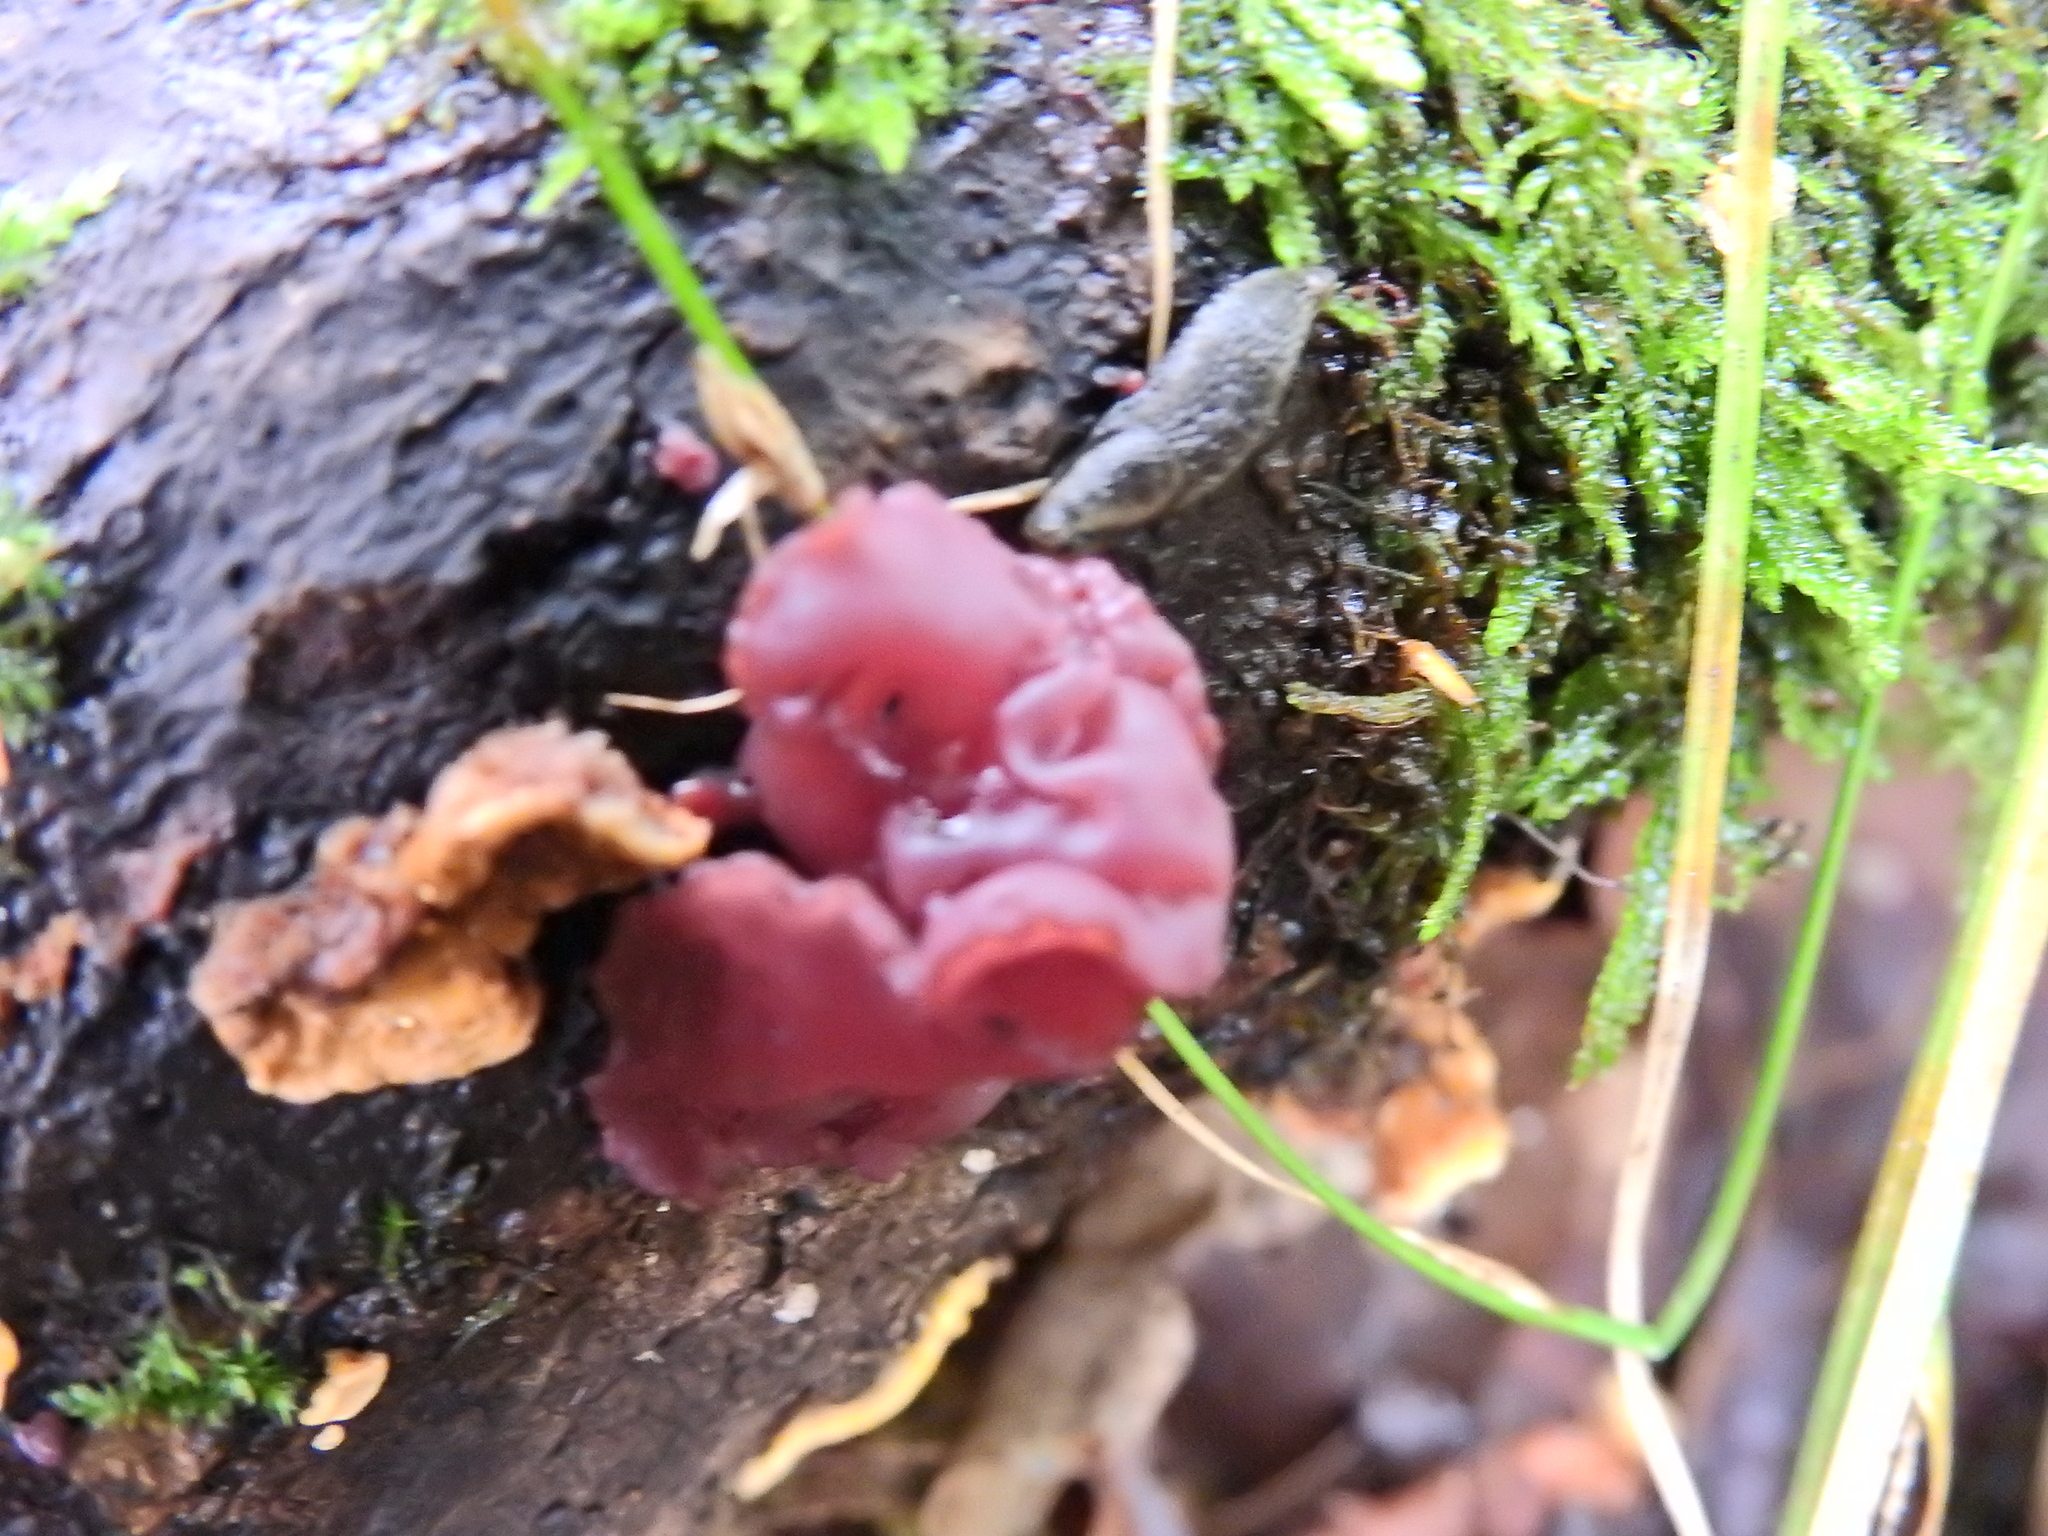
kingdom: Fungi
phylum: Ascomycota
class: Leotiomycetes
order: Helotiales
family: Gelatinodiscaceae
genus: Ascocoryne
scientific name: Ascocoryne sarcoides
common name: Purple jellydisc
